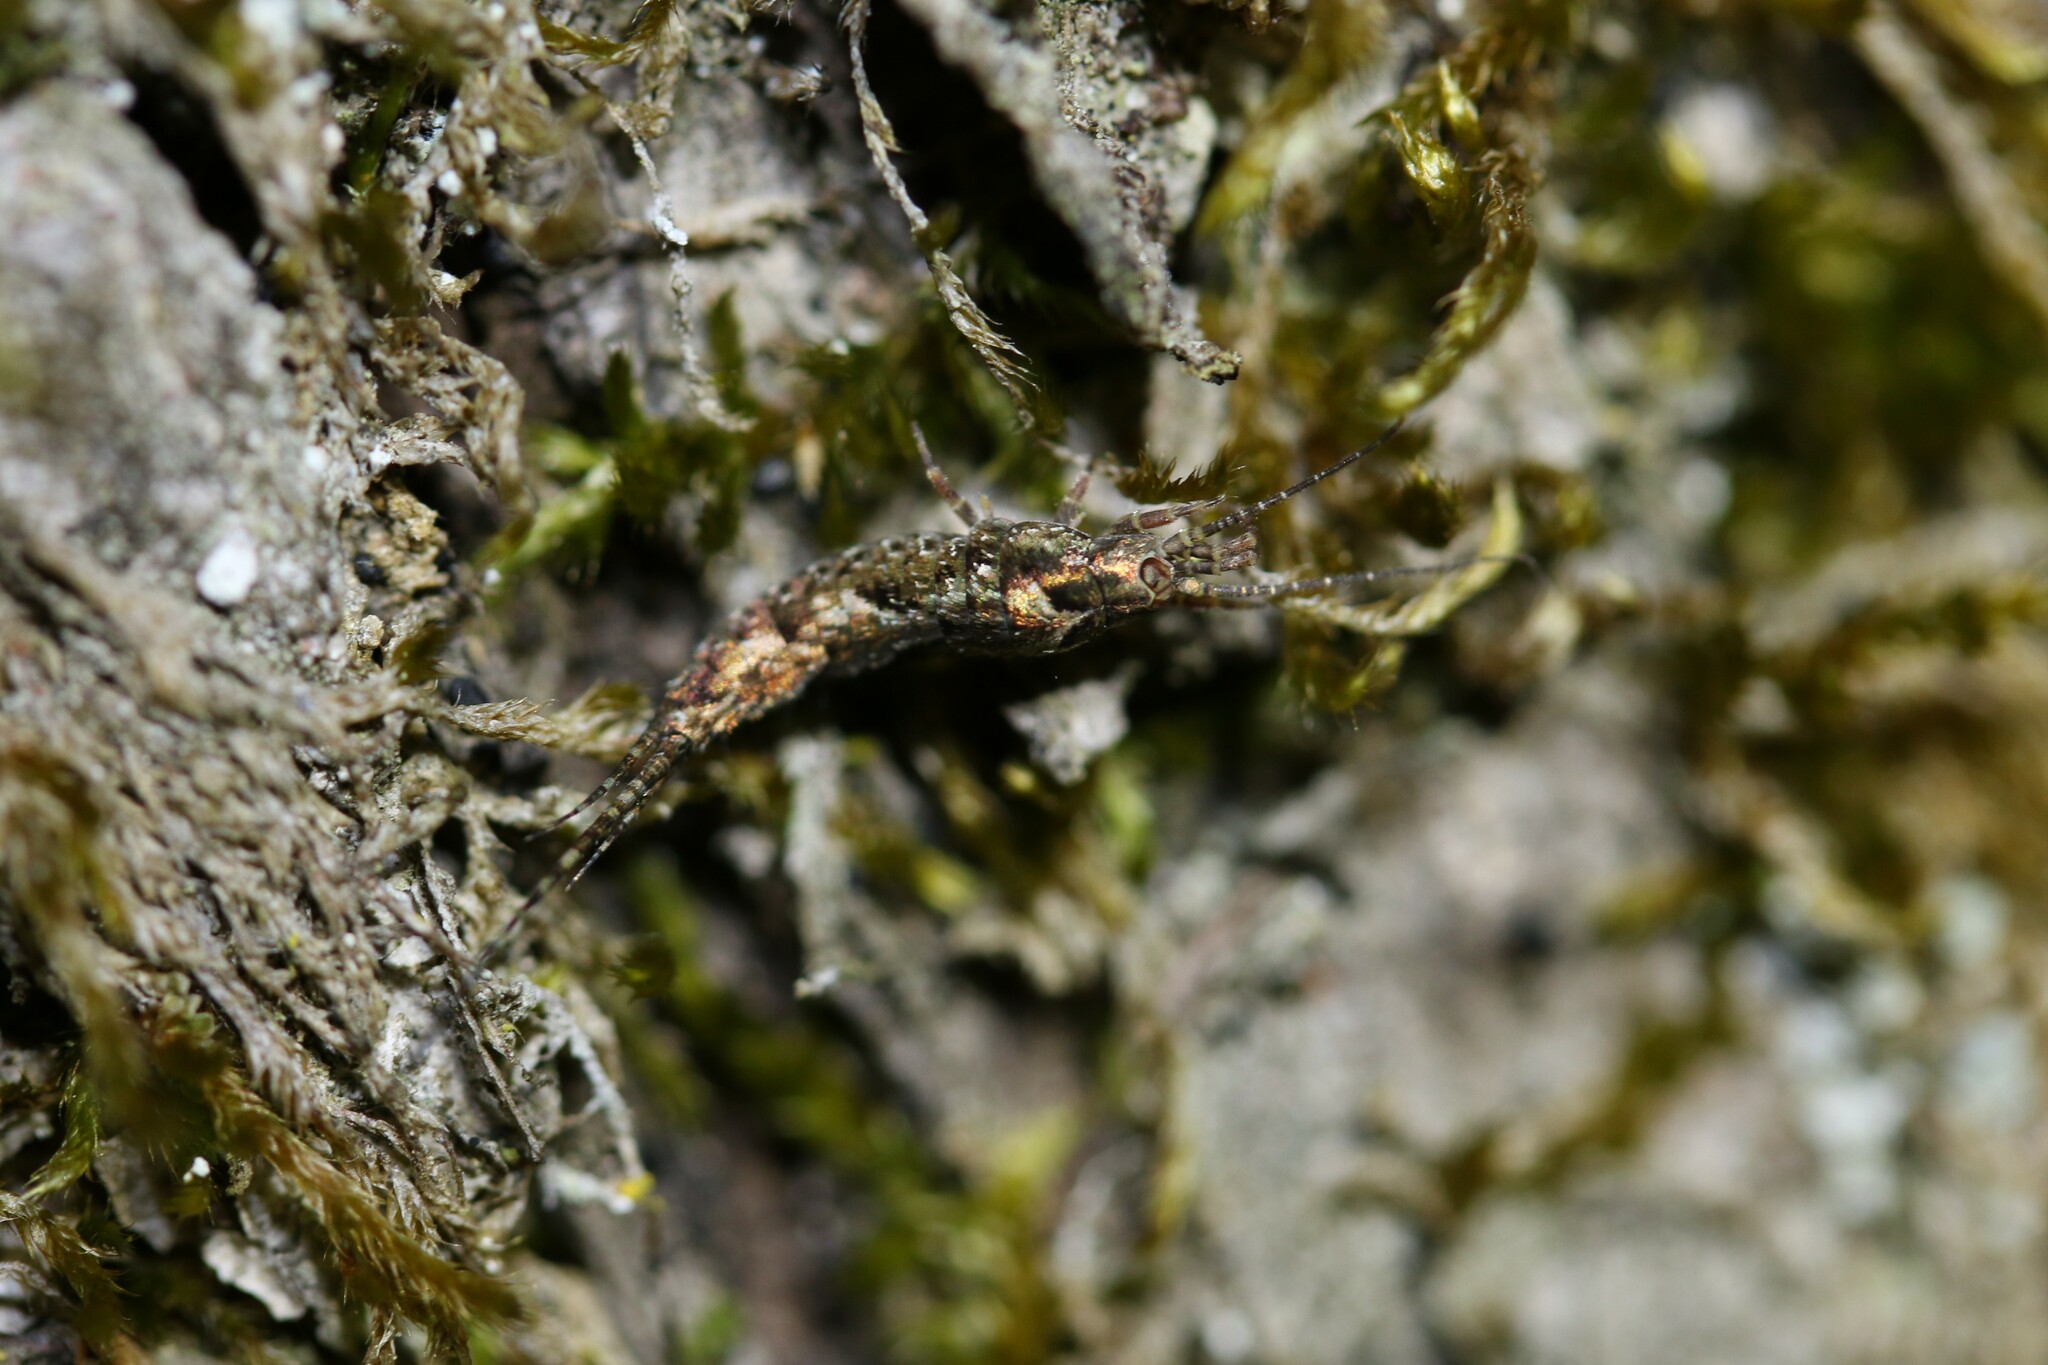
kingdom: Animalia
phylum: Arthropoda
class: Insecta
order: Archaeognatha
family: Machilidae
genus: Lepismachilis
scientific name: Lepismachilis y-signata
